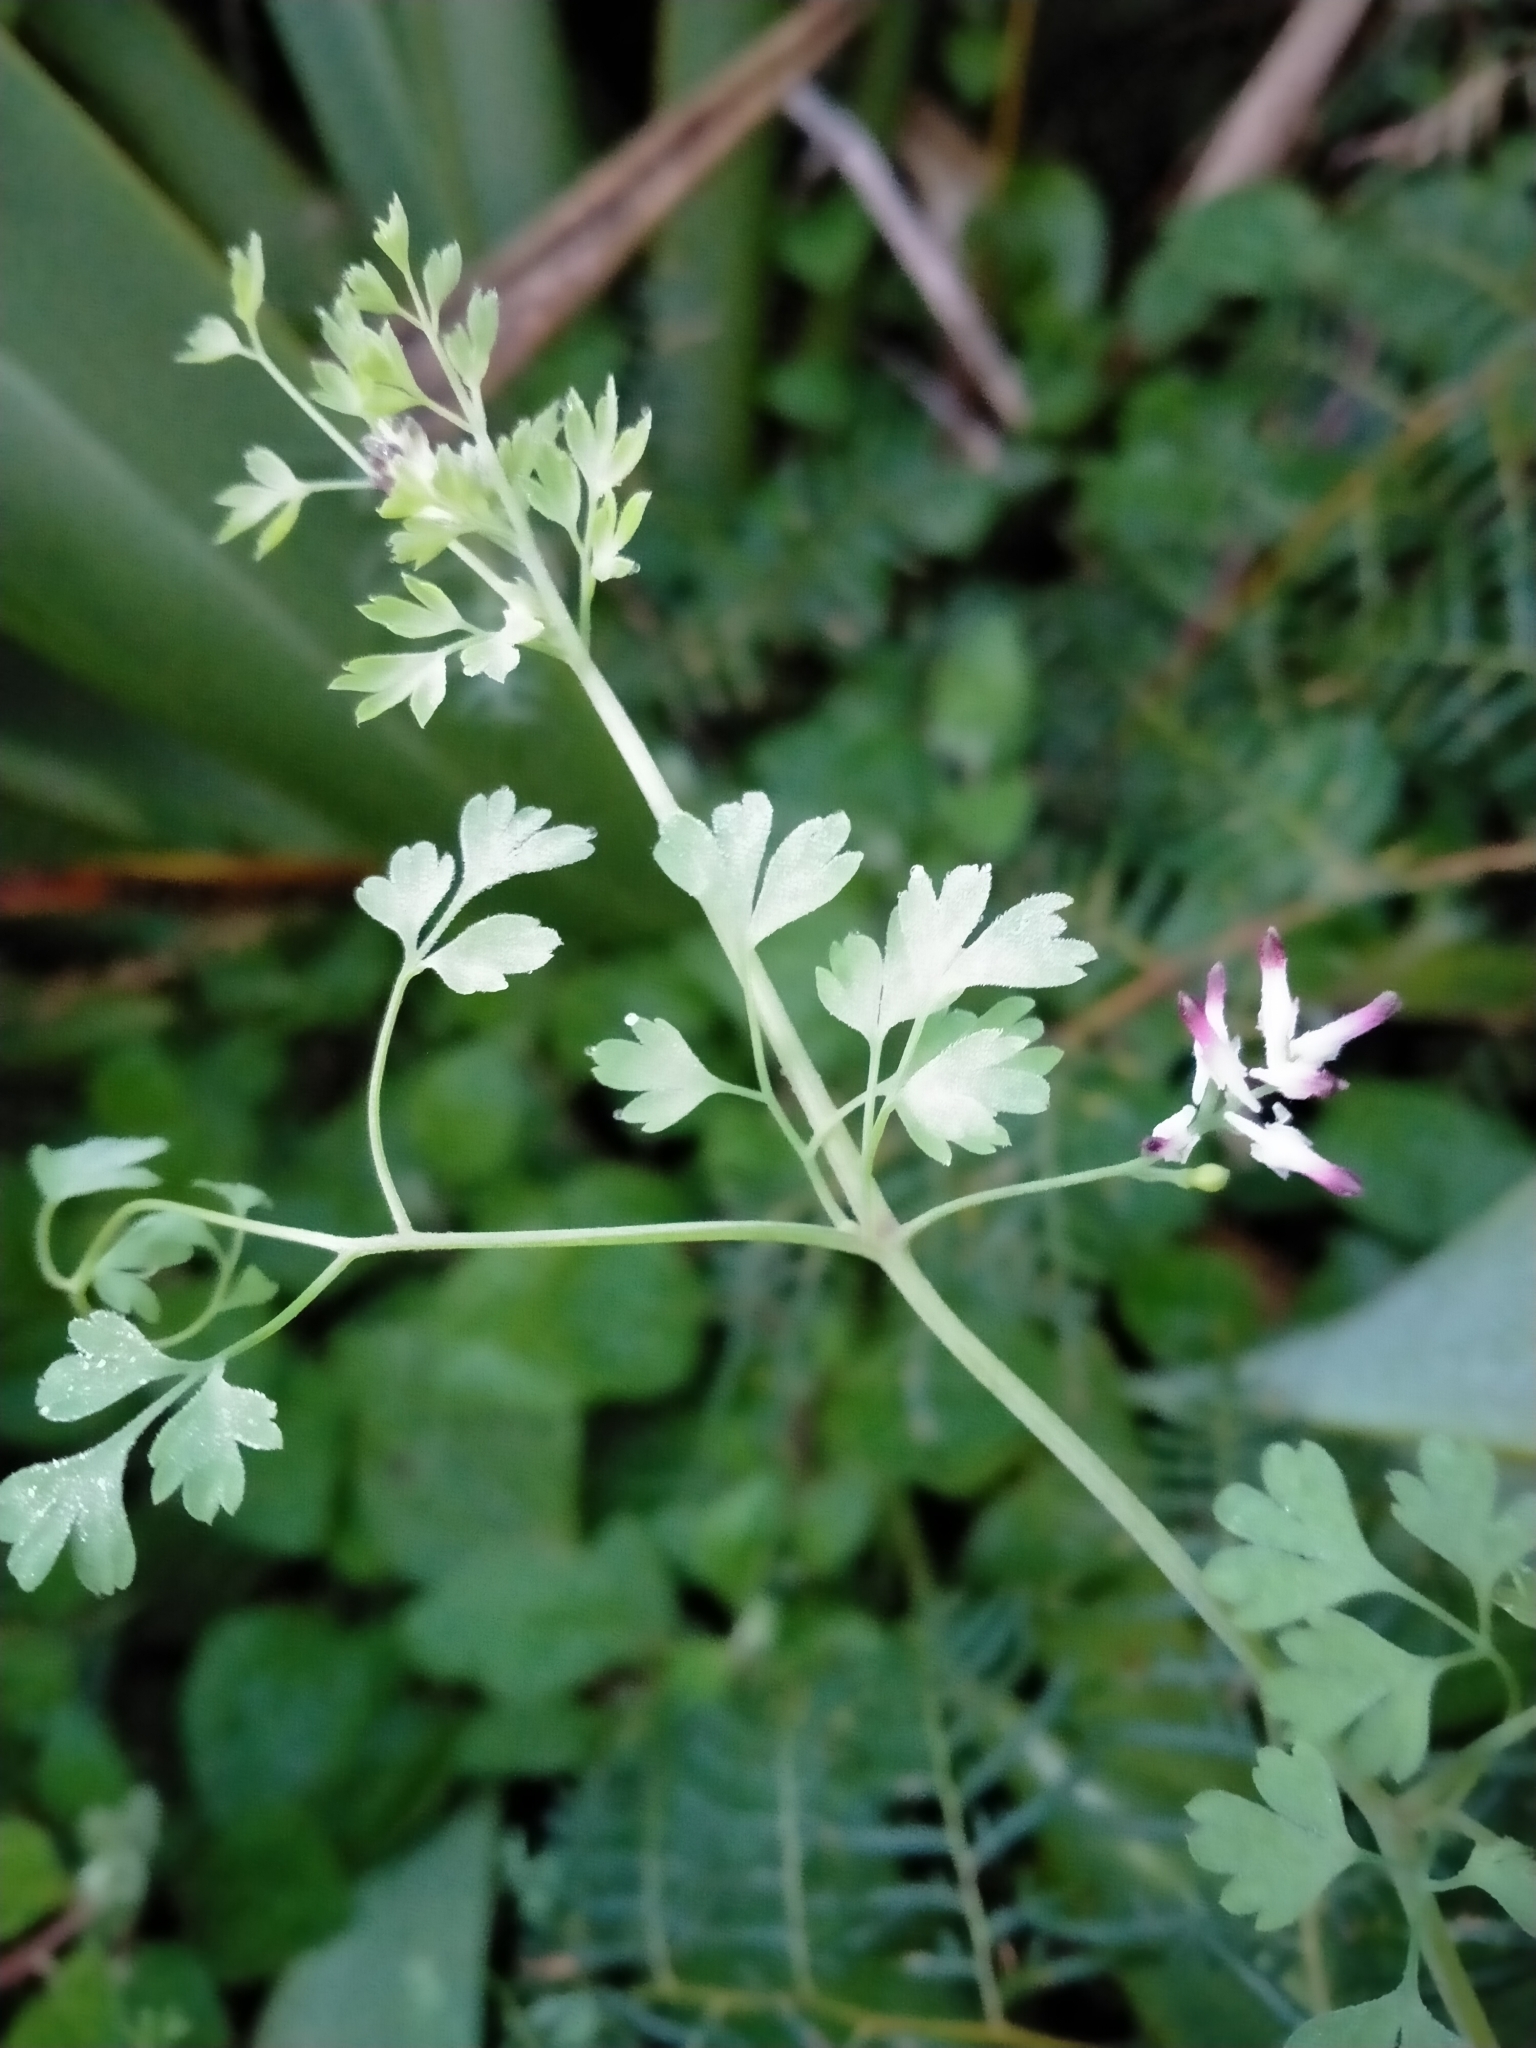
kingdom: Plantae
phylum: Tracheophyta
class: Magnoliopsida
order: Ranunculales
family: Papaveraceae
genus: Fumaria
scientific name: Fumaria muralis
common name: Common ramping-fumitory
